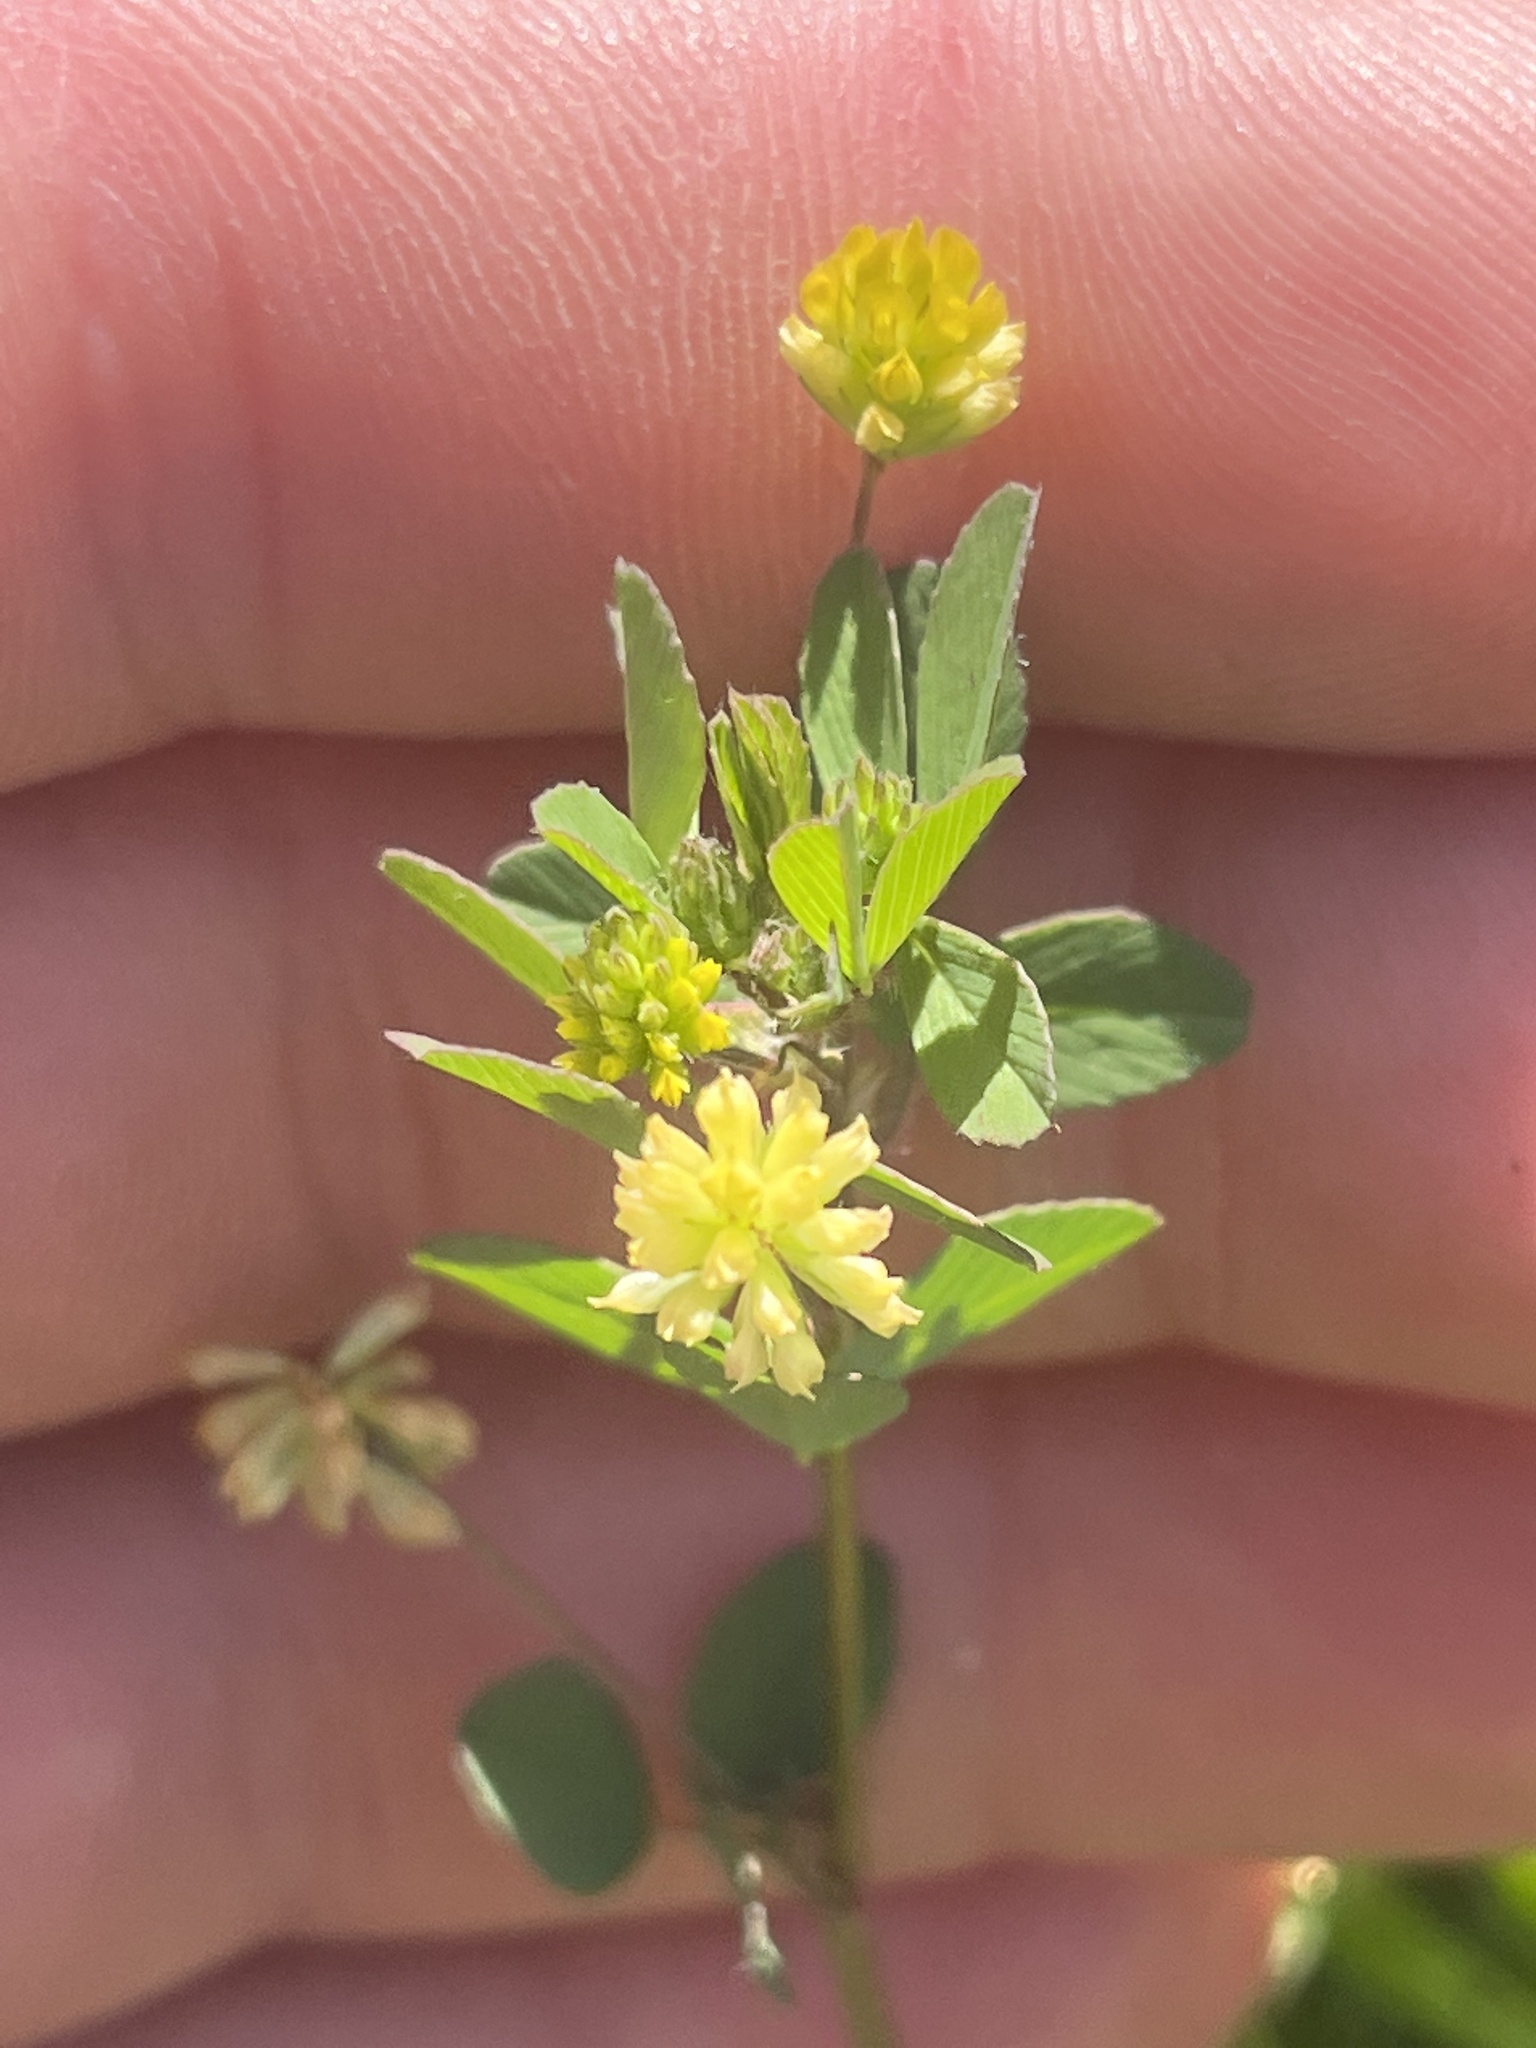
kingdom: Plantae
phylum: Tracheophyta
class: Magnoliopsida
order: Fabales
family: Fabaceae
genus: Trifolium
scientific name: Trifolium dubium
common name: Suckling clover
